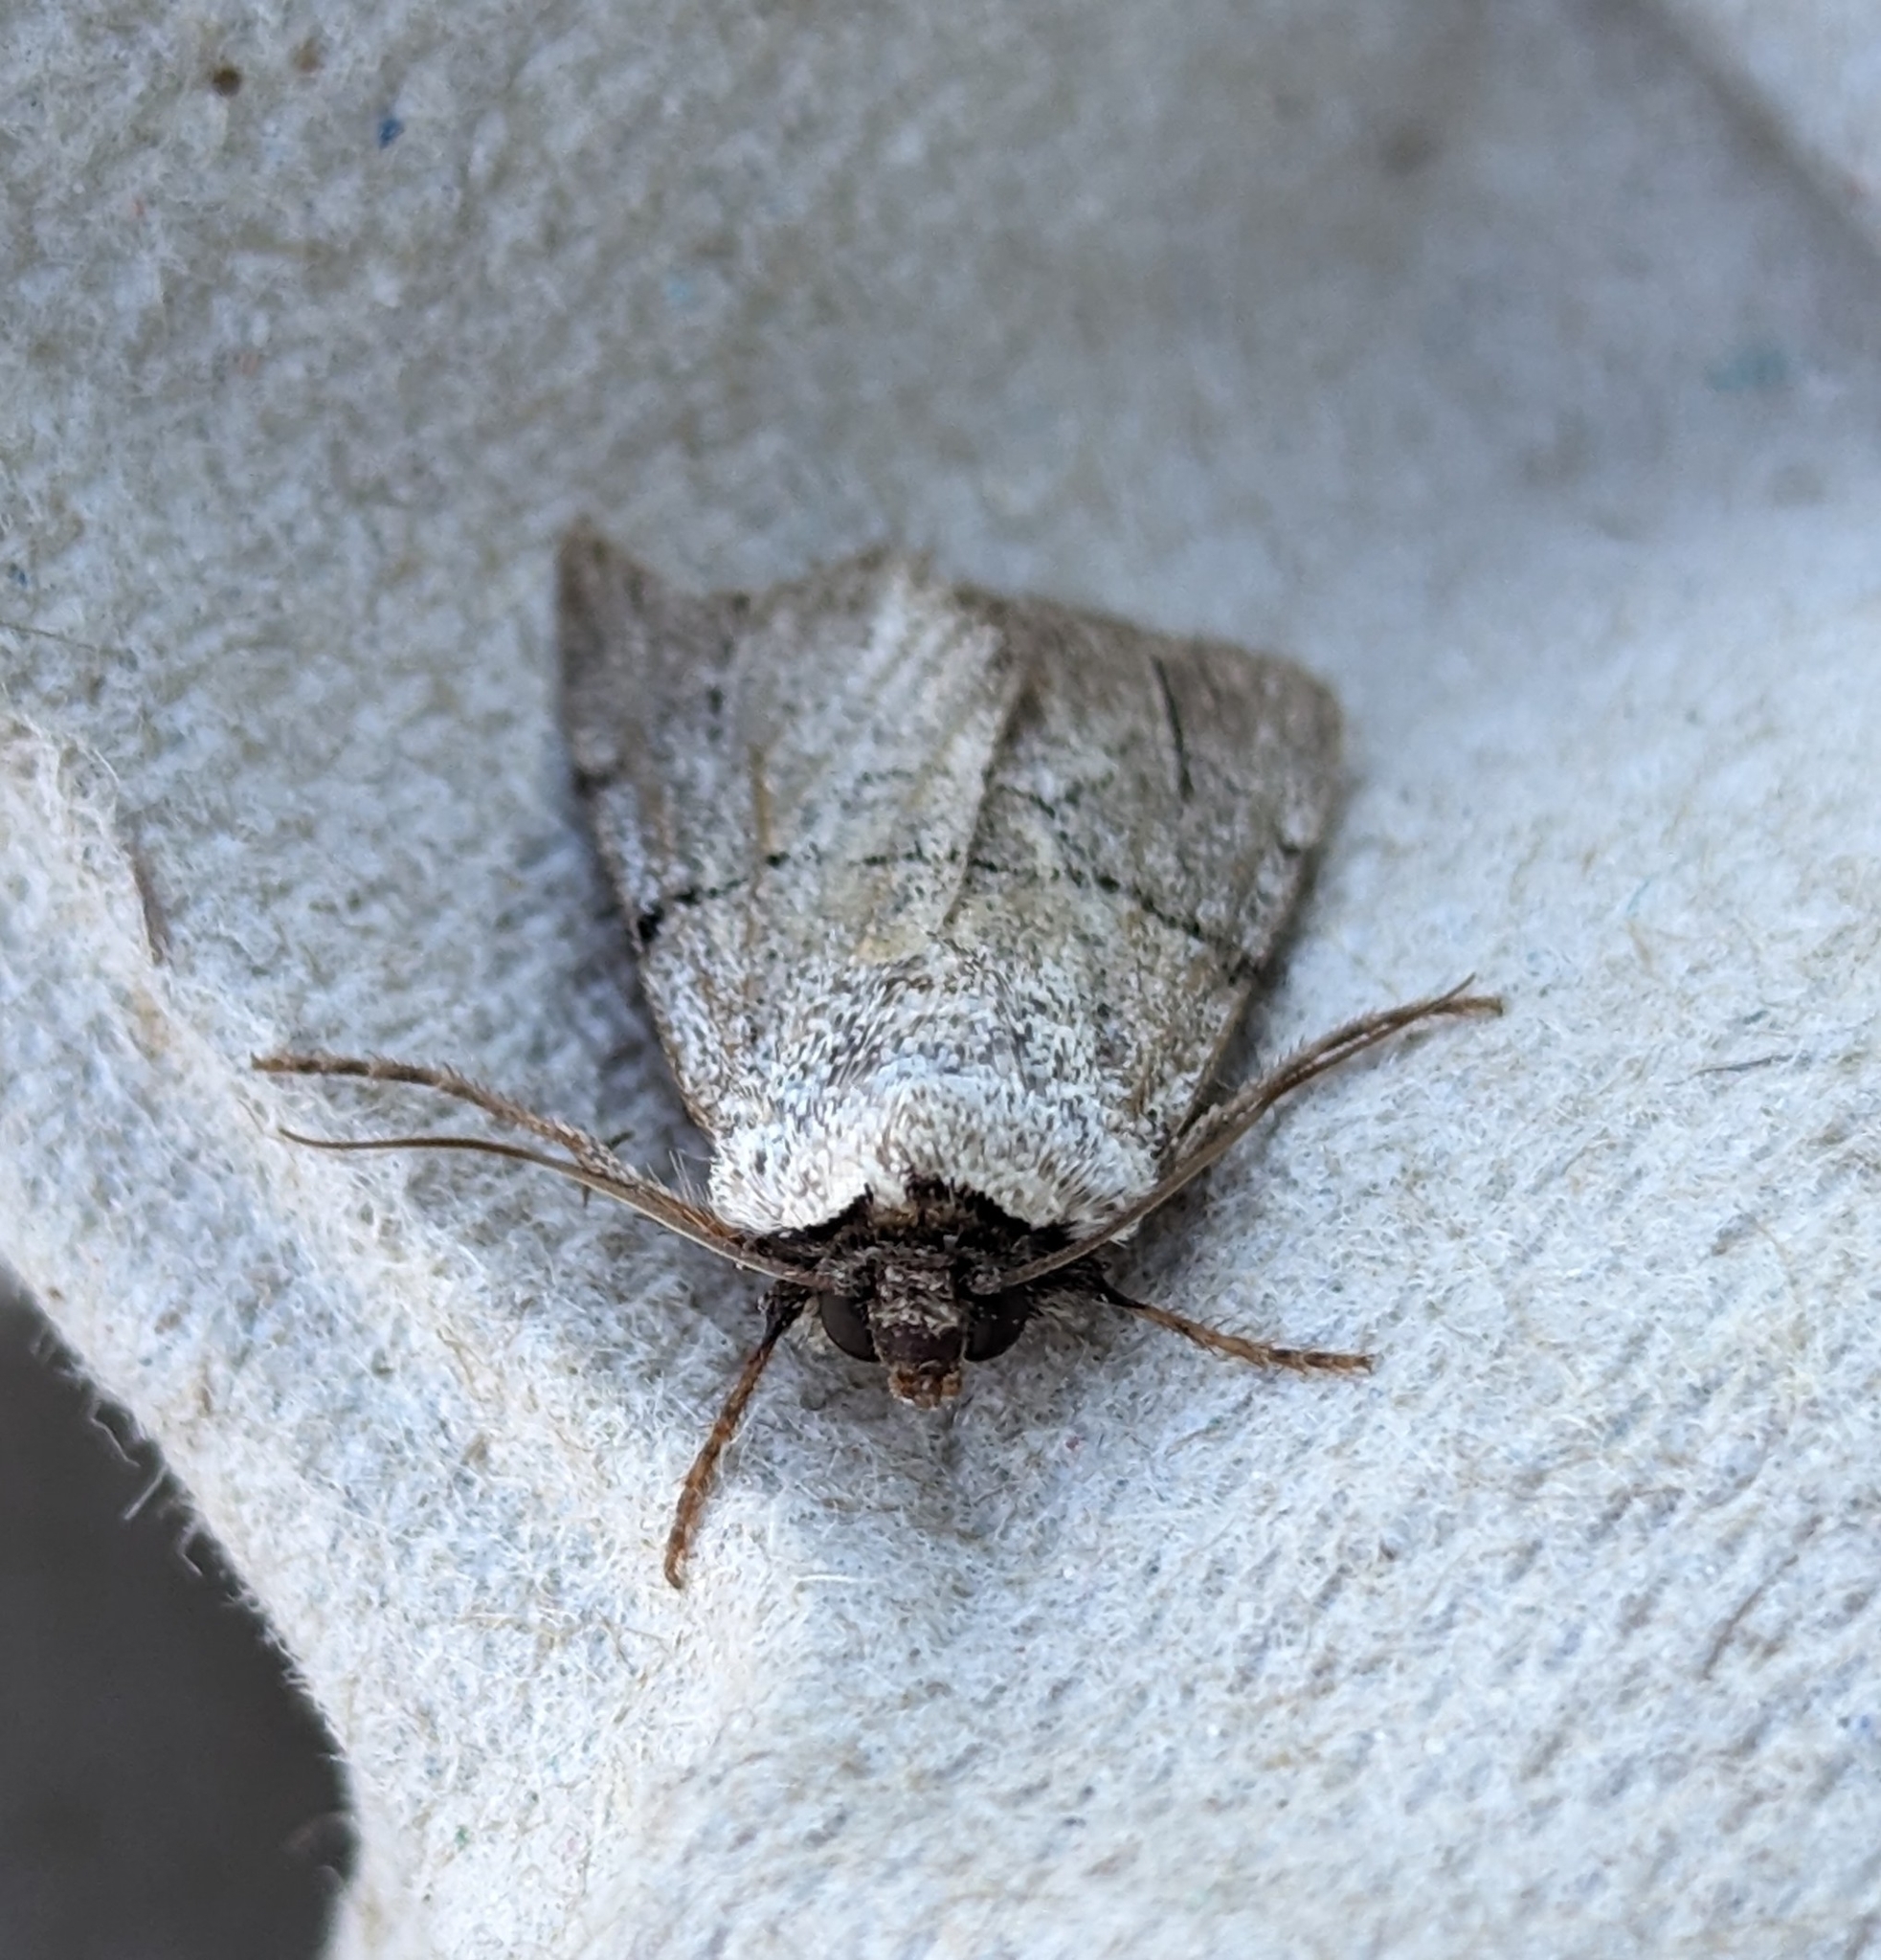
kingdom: Animalia
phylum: Arthropoda
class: Insecta
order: Lepidoptera
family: Noctuidae
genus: Sympistis
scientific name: Sympistis greyi
